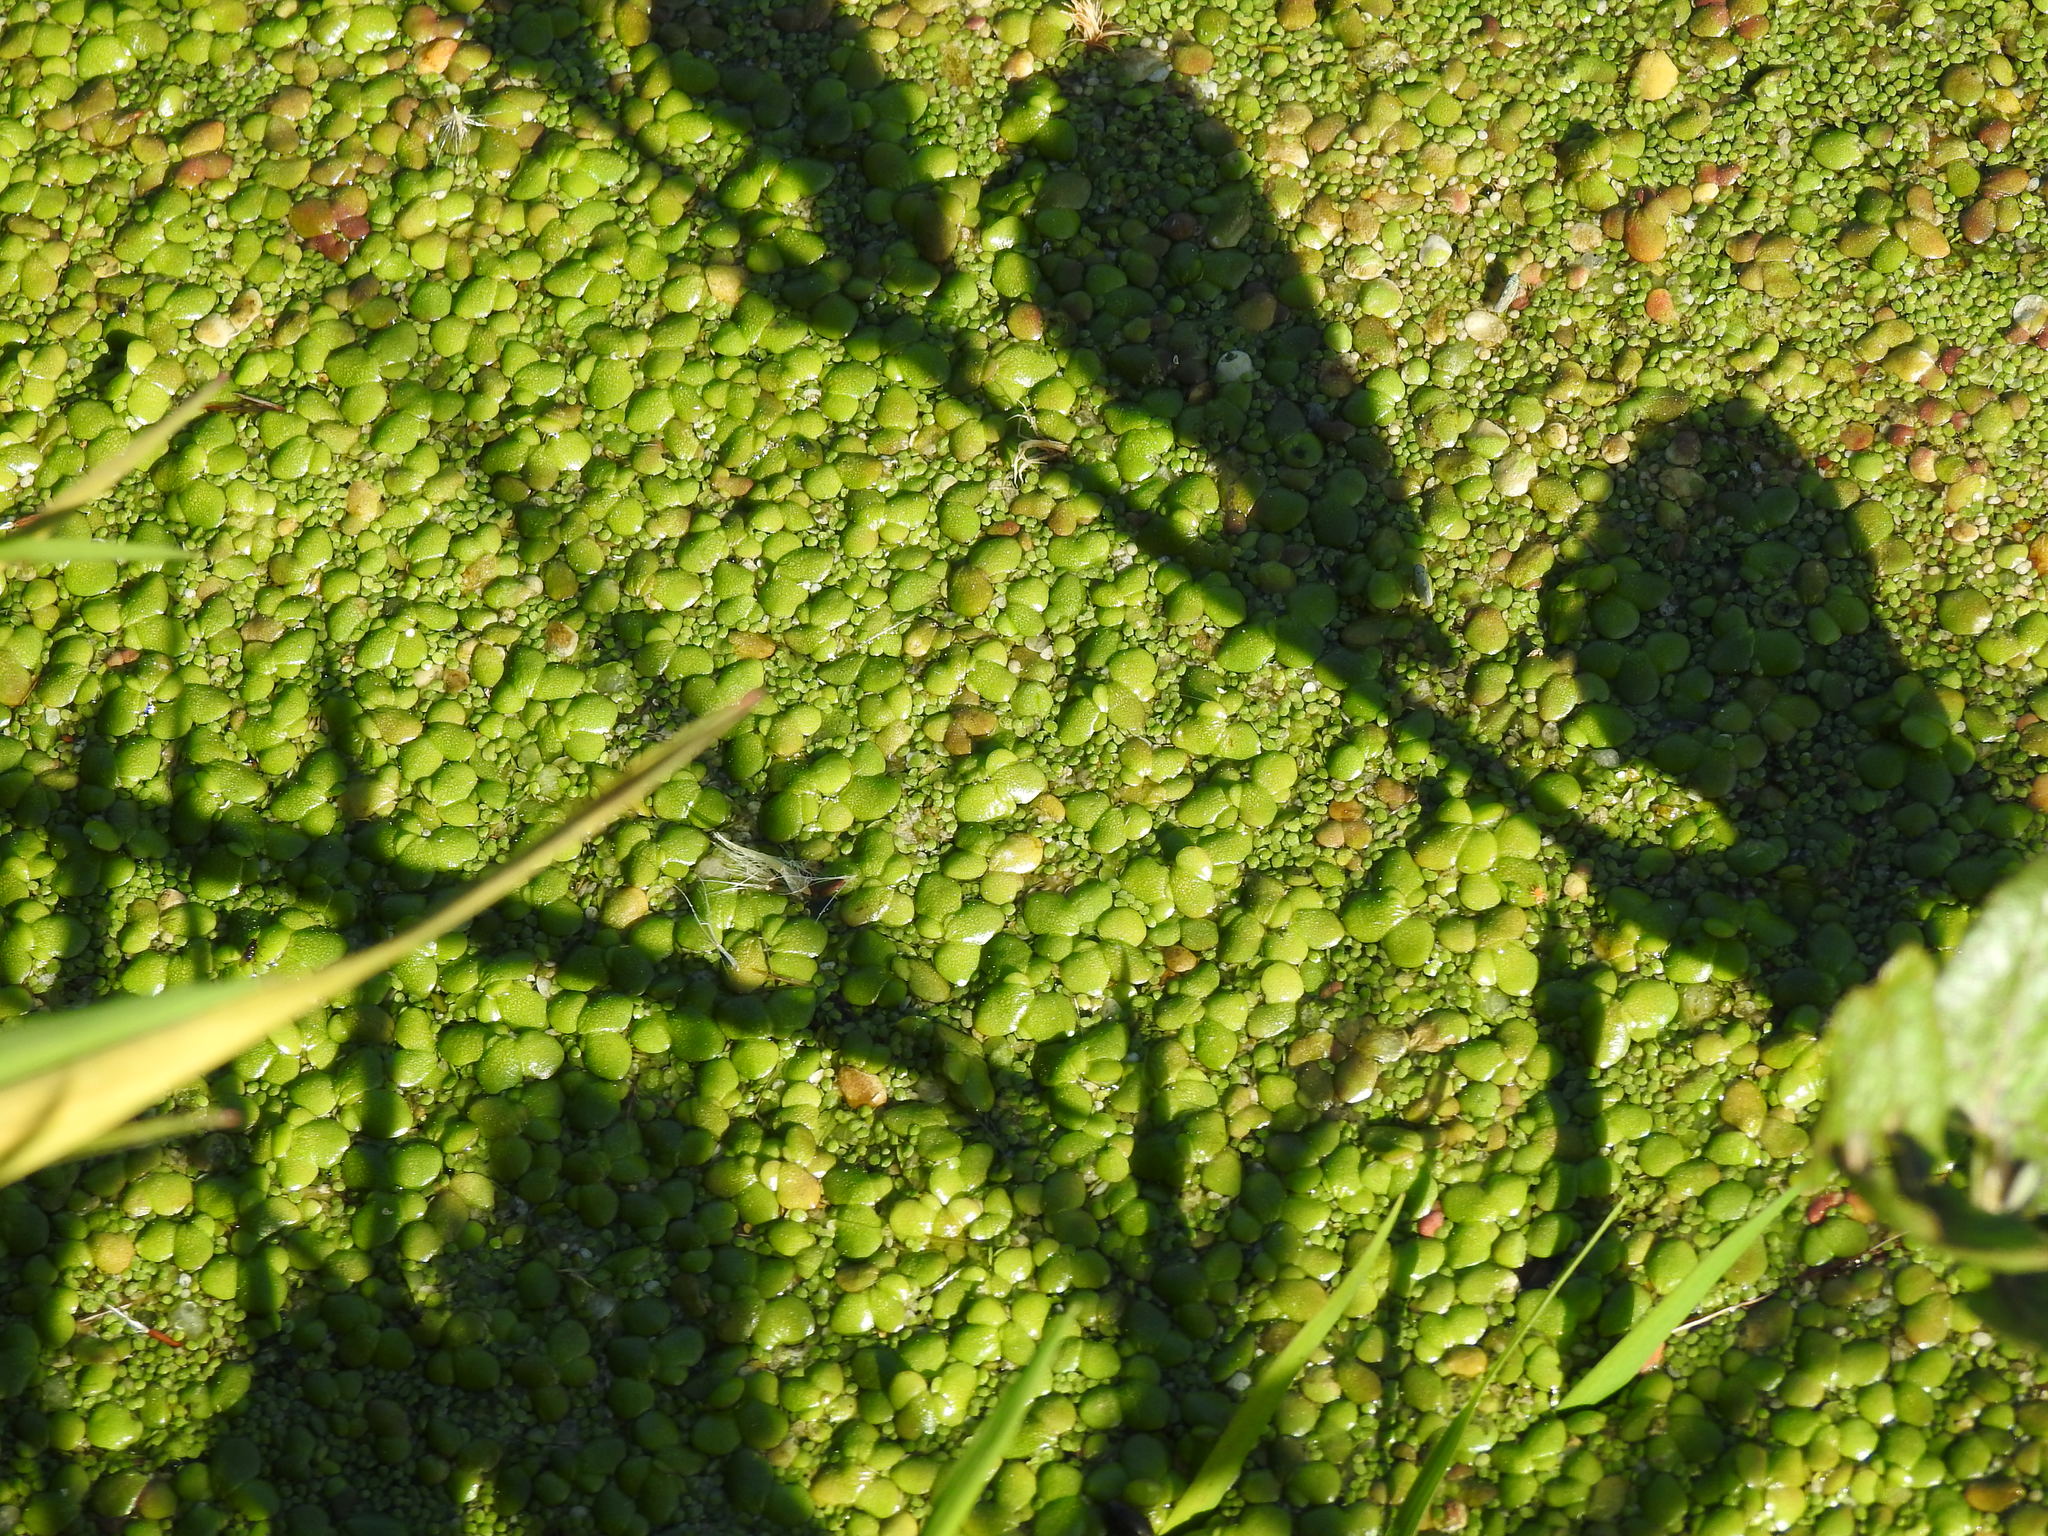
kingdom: Plantae
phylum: Tracheophyta
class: Liliopsida
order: Alismatales
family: Araceae
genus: Lemna
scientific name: Lemna gibba
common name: Fat duckweed
